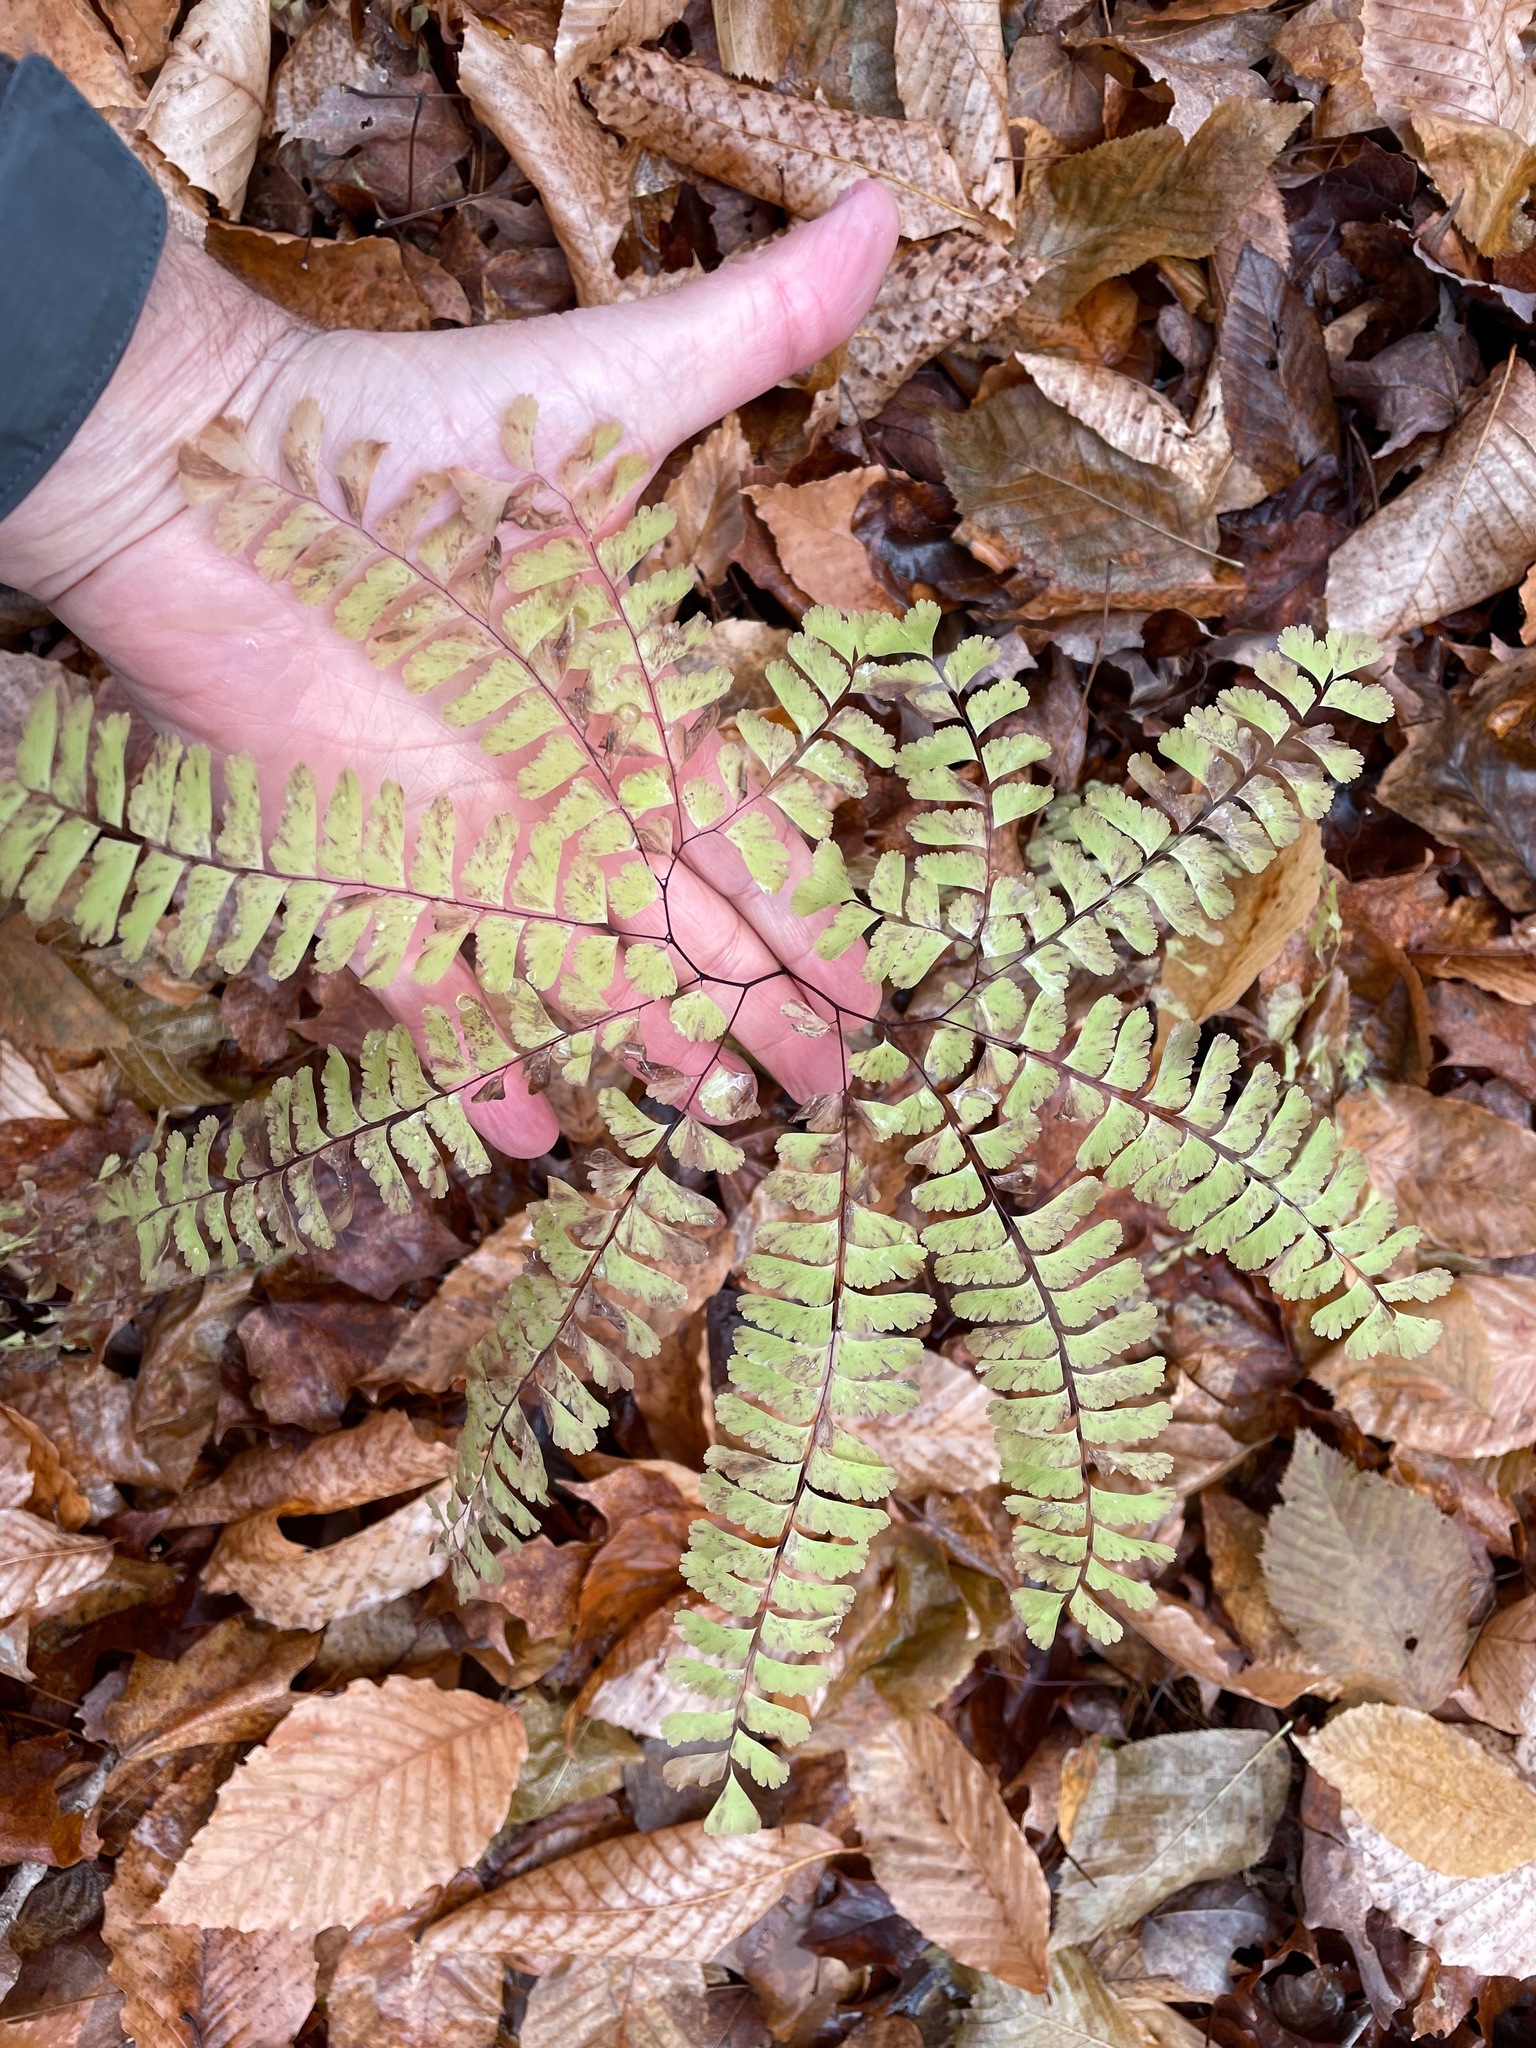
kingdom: Plantae
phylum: Tracheophyta
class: Polypodiopsida
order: Polypodiales
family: Pteridaceae
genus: Adiantum
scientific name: Adiantum pedatum
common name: Five-finger fern
